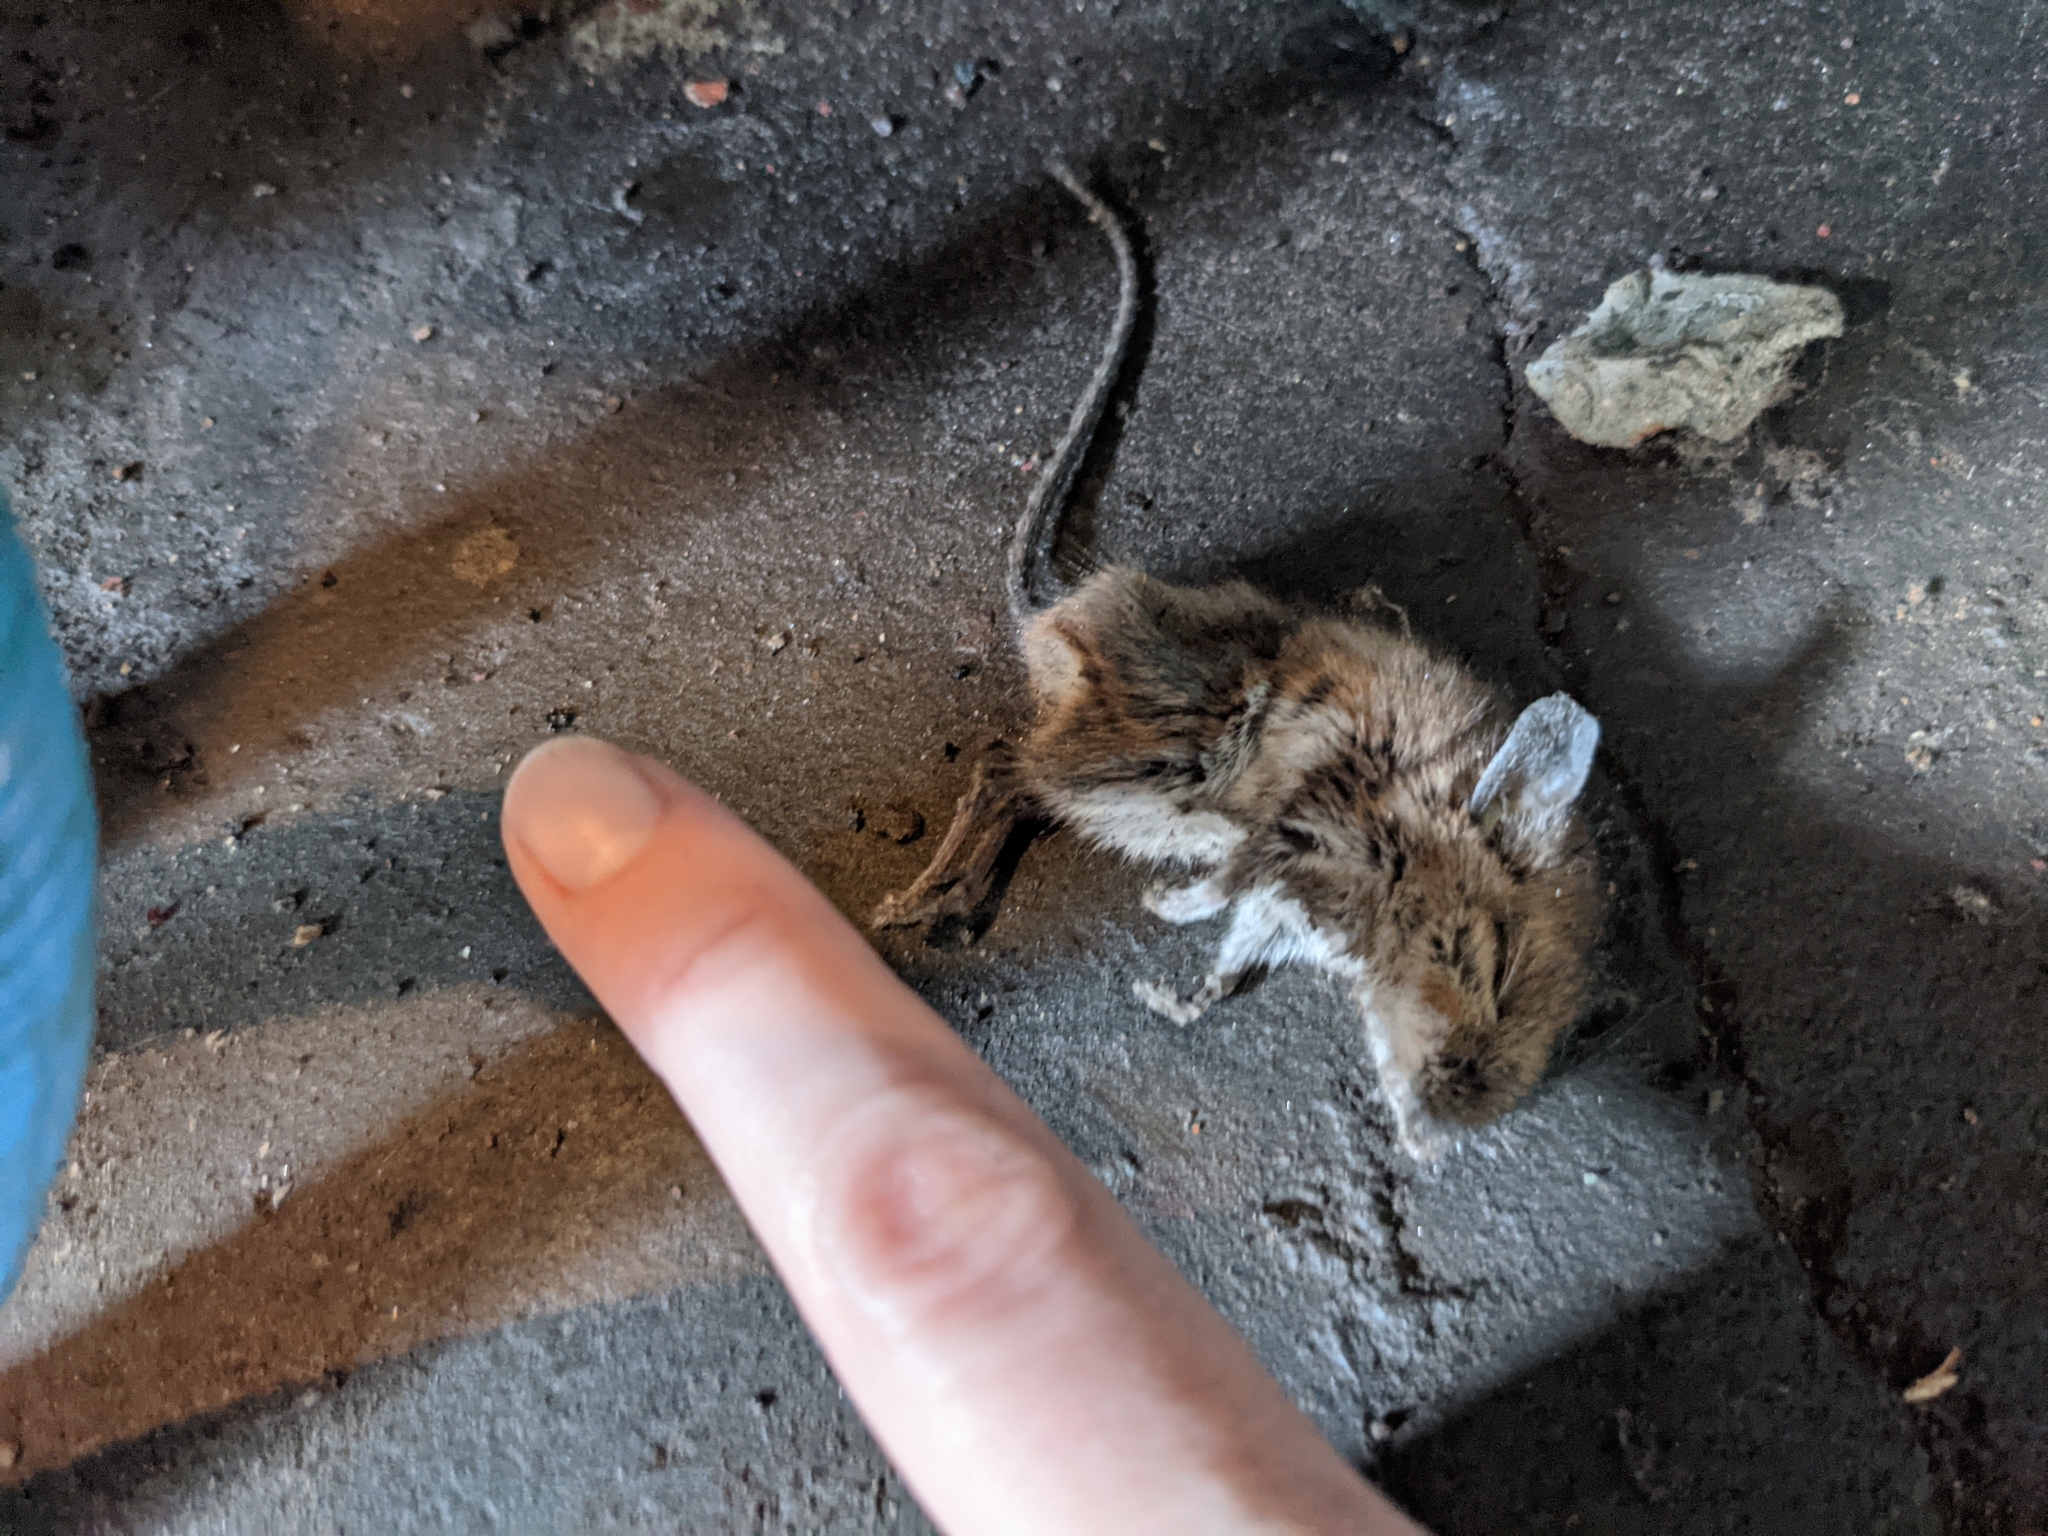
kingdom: Animalia
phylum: Chordata
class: Mammalia
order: Rodentia
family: Cricetidae
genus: Peromyscus
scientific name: Peromyscus leucopus
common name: White-footed deermouse
